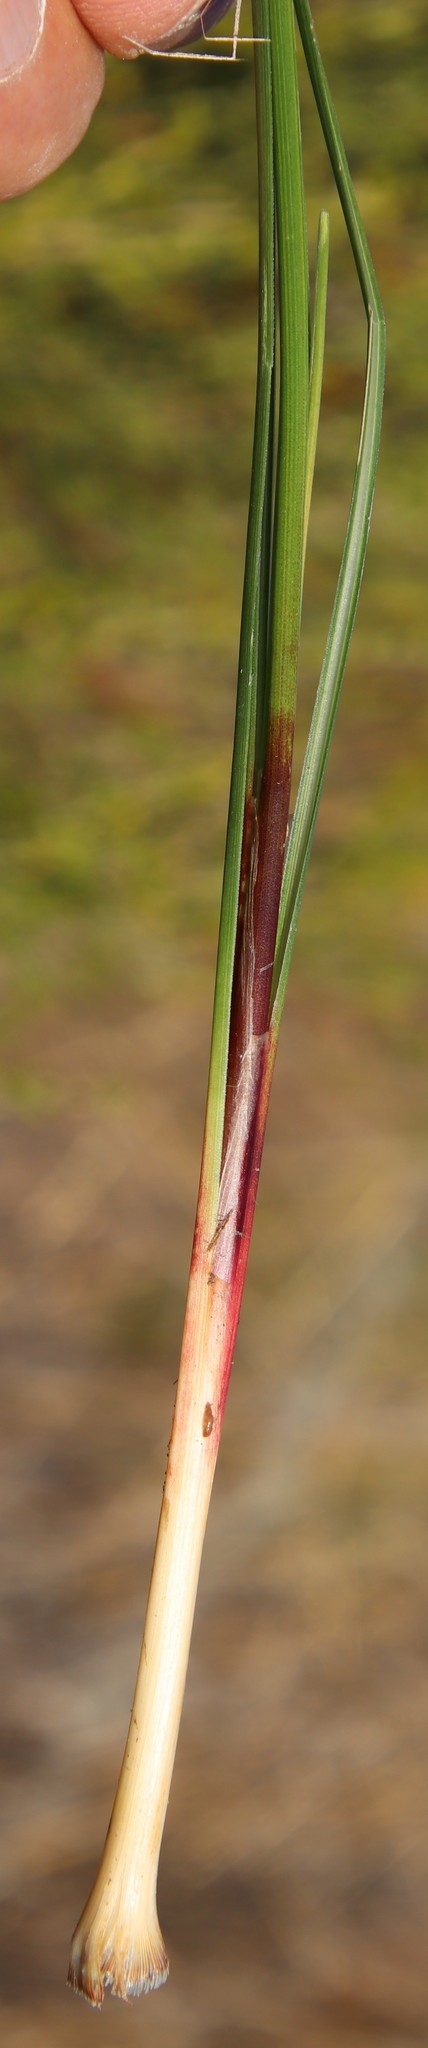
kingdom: Plantae
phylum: Tracheophyta
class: Liliopsida
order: Poales
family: Cyperaceae
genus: Cyperus
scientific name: Cyperus denudatus
